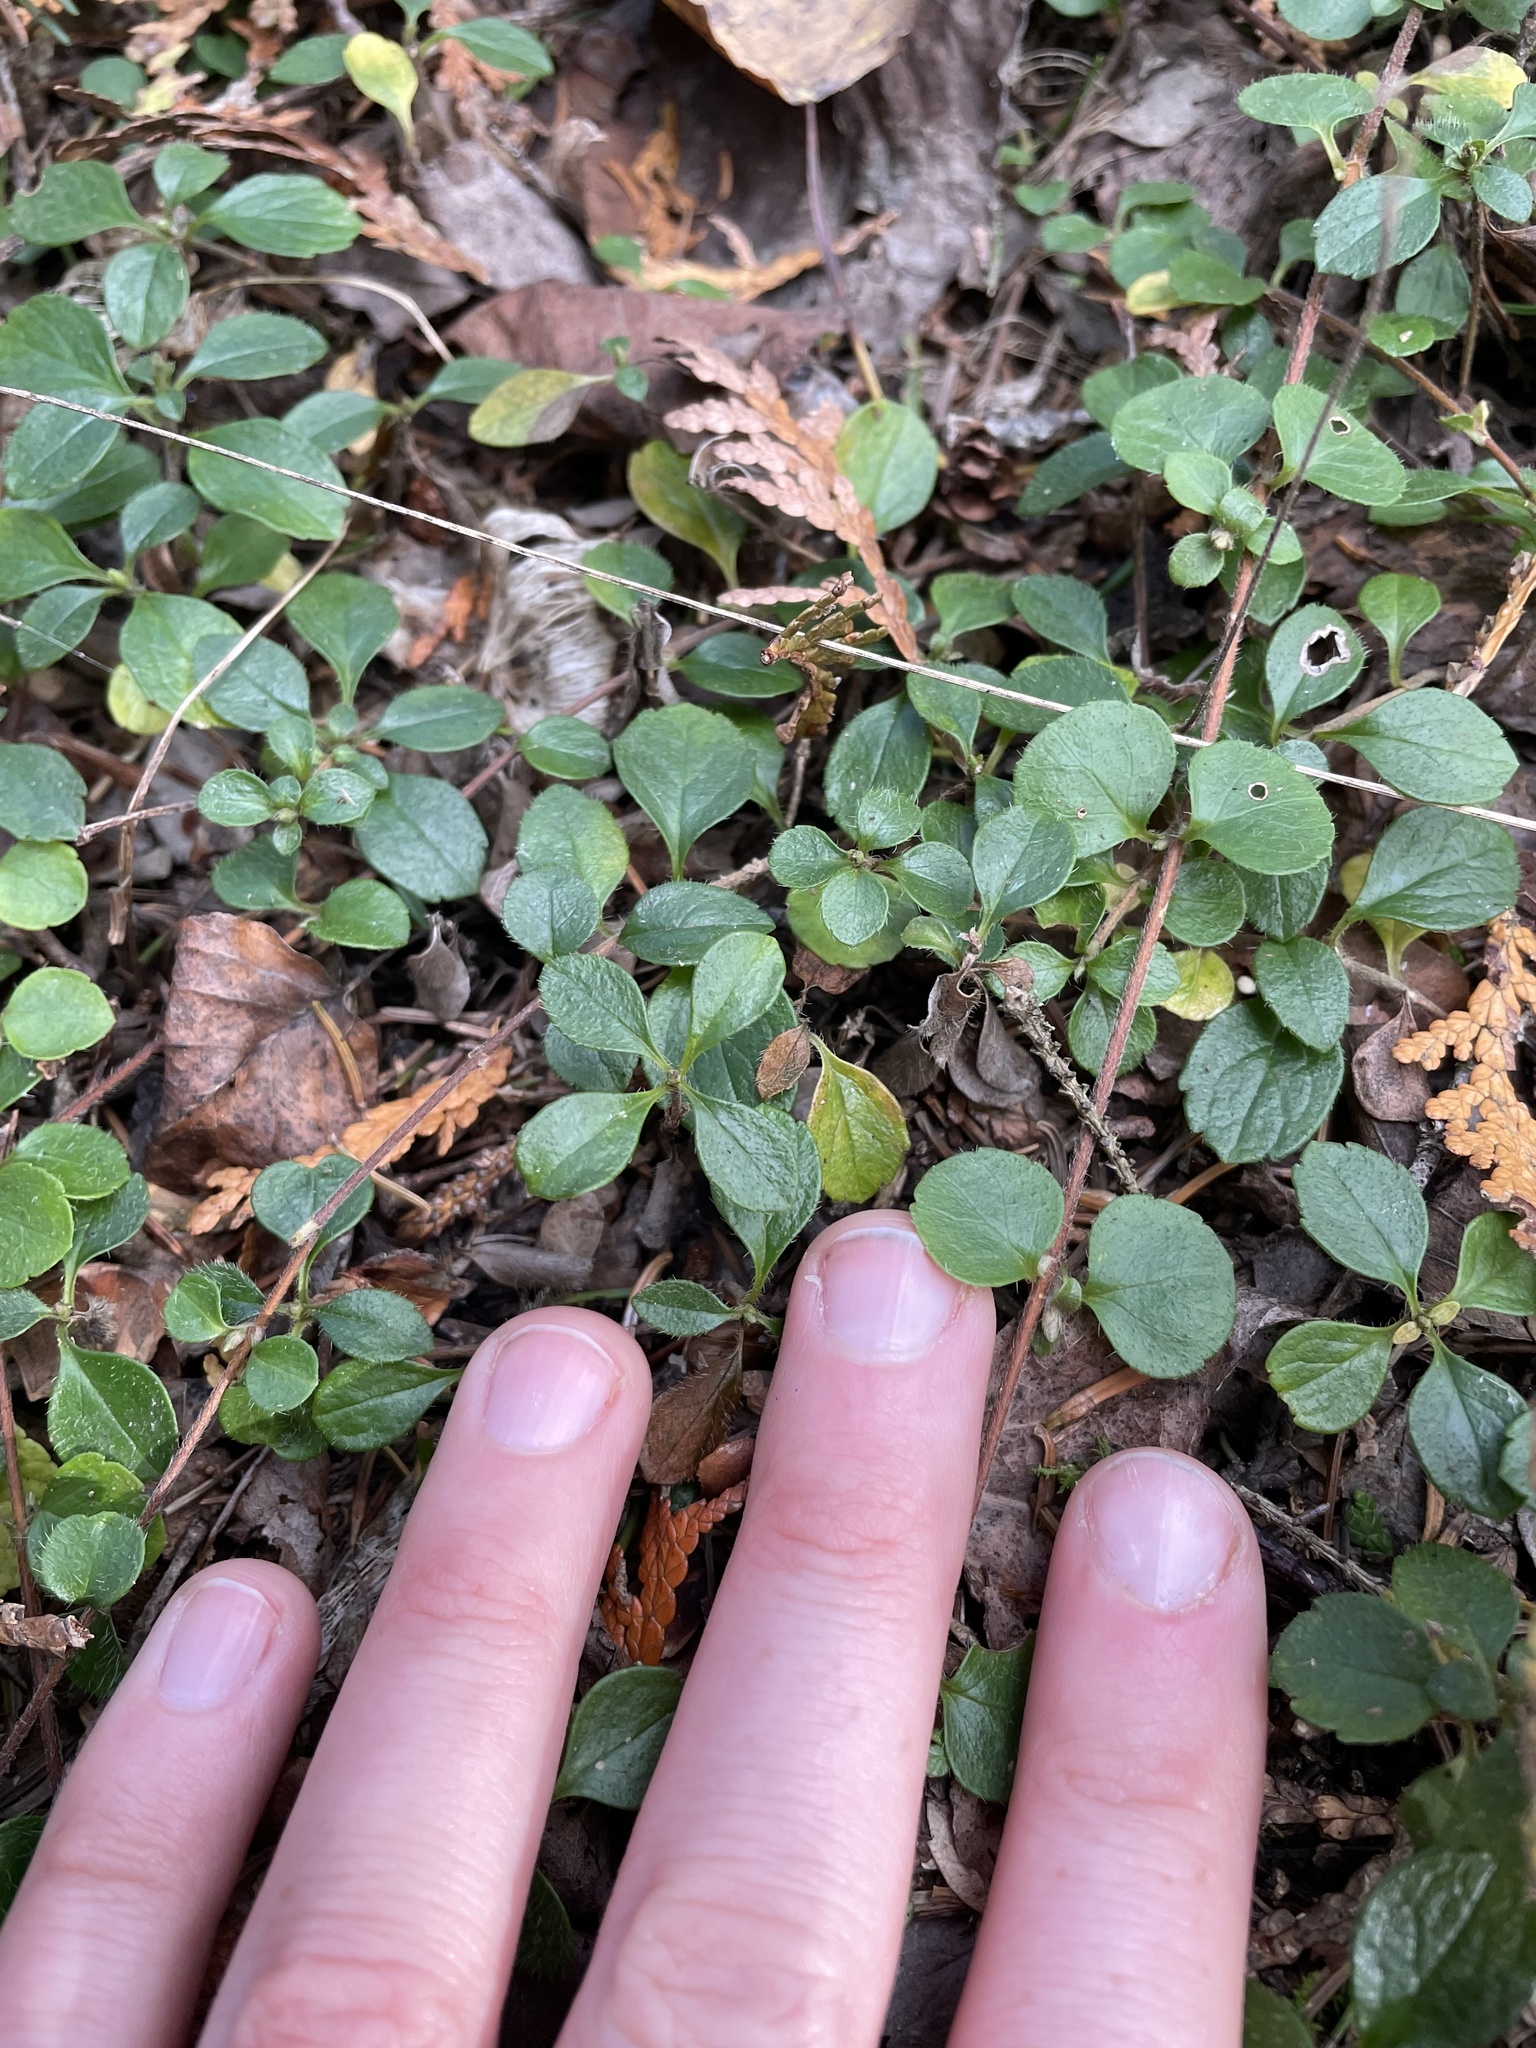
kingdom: Plantae
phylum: Tracheophyta
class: Magnoliopsida
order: Dipsacales
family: Caprifoliaceae
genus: Linnaea
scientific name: Linnaea borealis
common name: Twinflower
